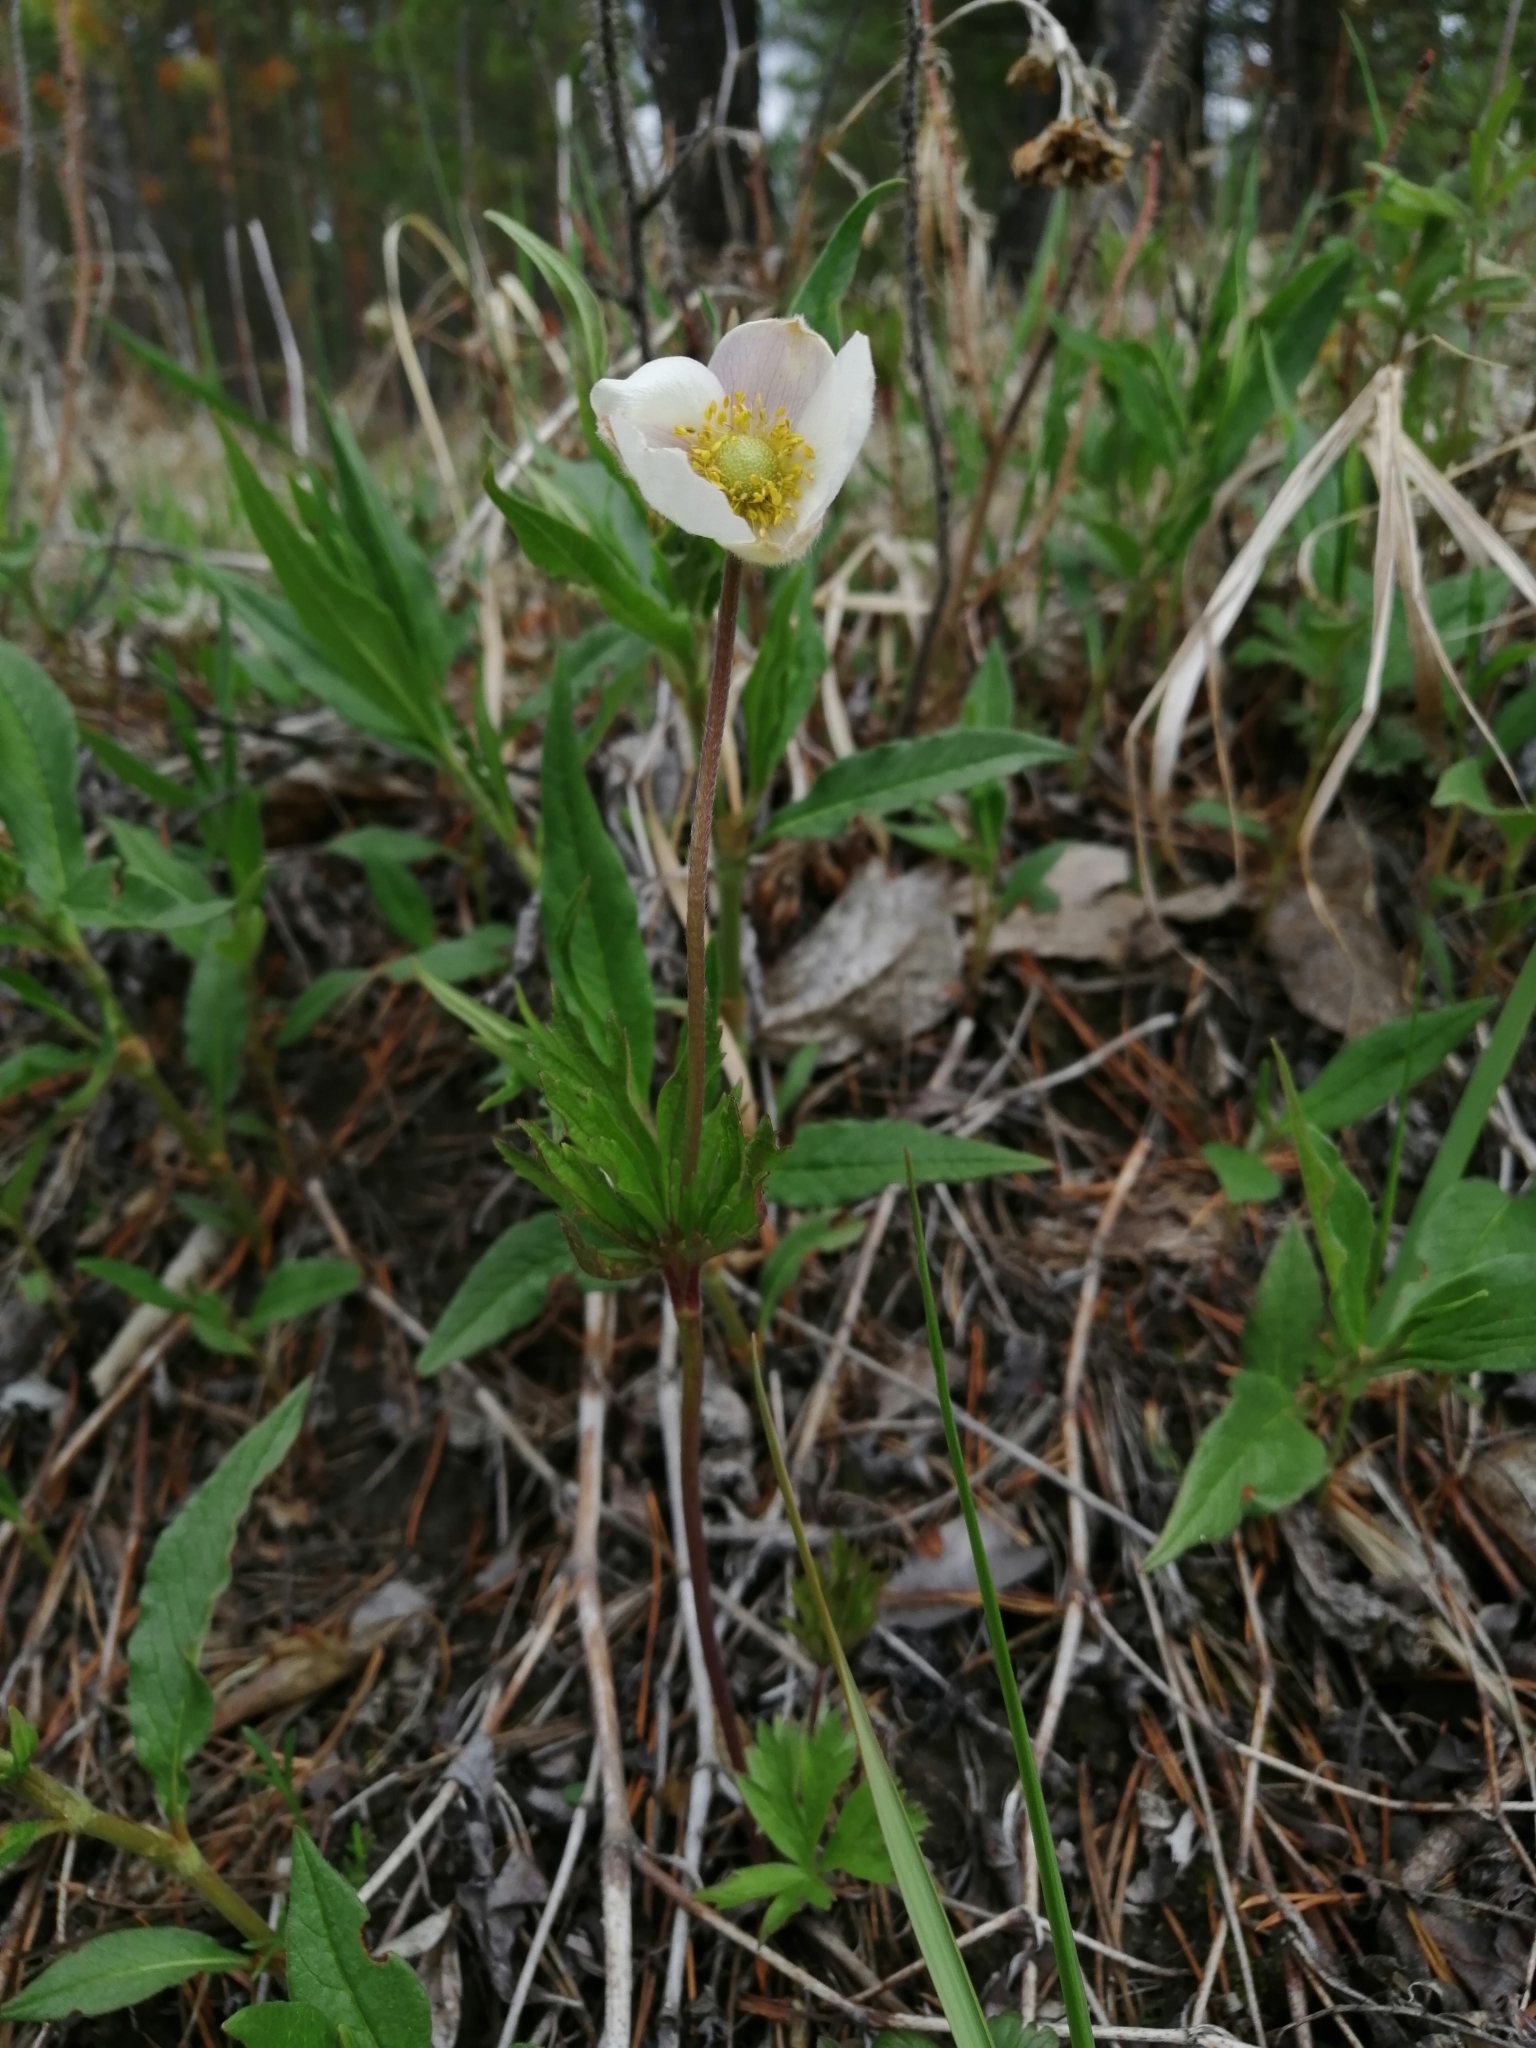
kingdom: Plantae
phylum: Tracheophyta
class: Magnoliopsida
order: Ranunculales
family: Ranunculaceae
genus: Anemone
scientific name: Anemone sylvestris
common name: Snowdrop anemone
